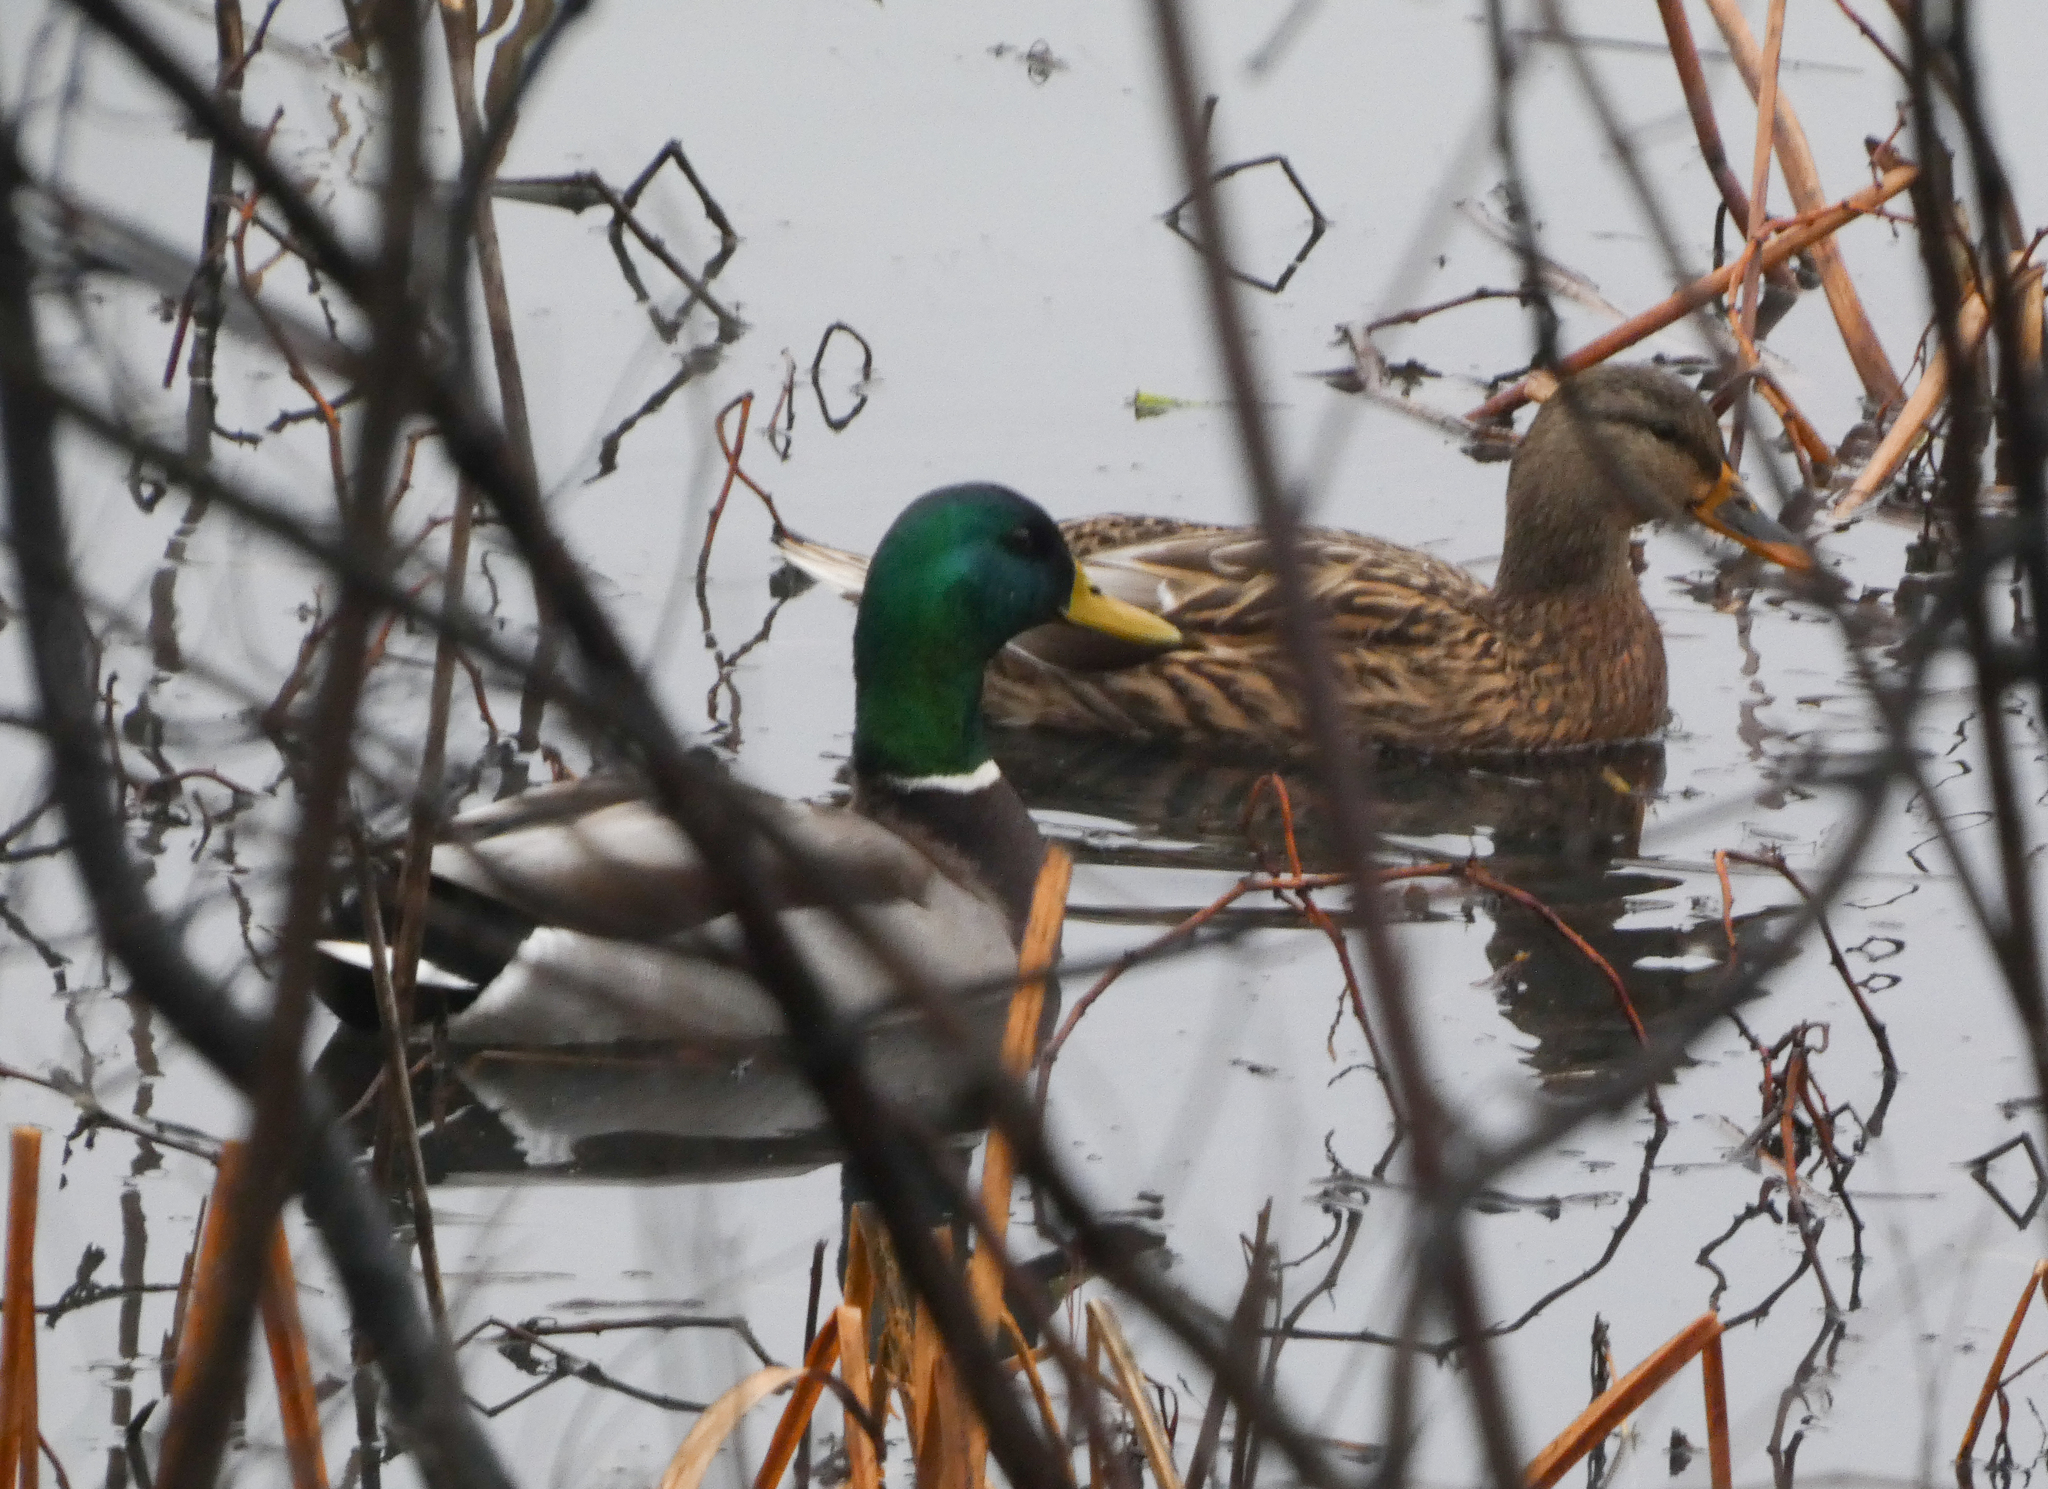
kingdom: Animalia
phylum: Chordata
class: Aves
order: Anseriformes
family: Anatidae
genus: Anas
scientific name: Anas platyrhynchos
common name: Mallard
